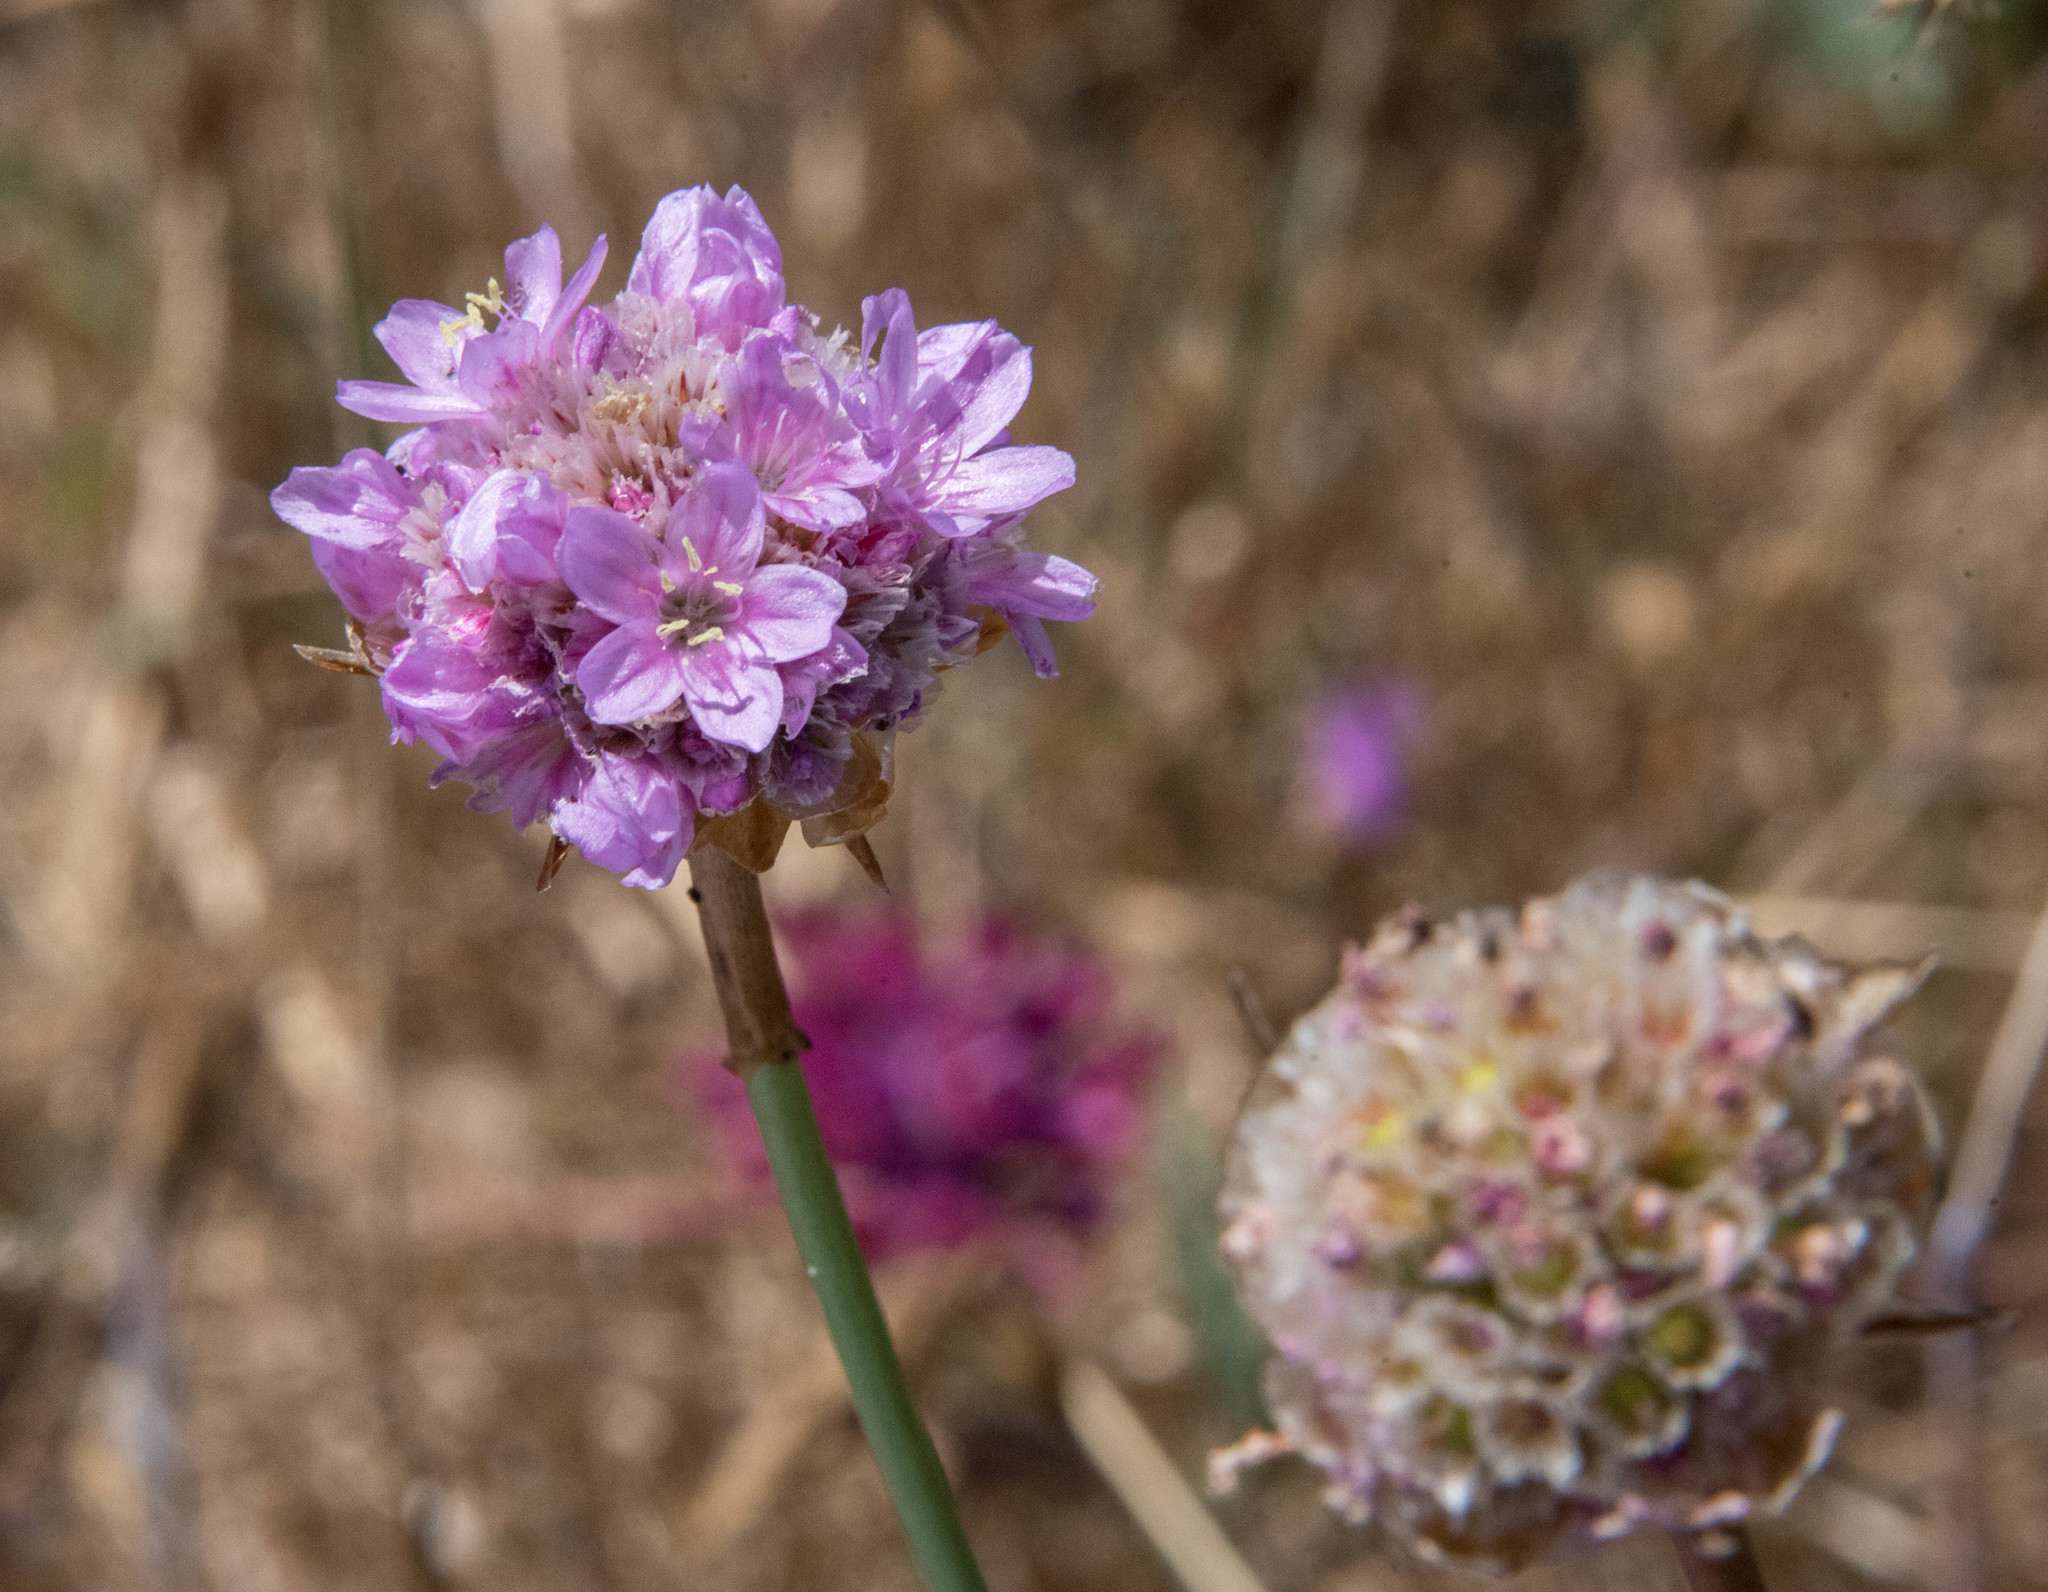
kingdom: Plantae
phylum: Tracheophyta
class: Magnoliopsida
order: Caryophyllales
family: Plumbaginaceae
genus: Armeria
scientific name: Armeria maritima
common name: Thrift
